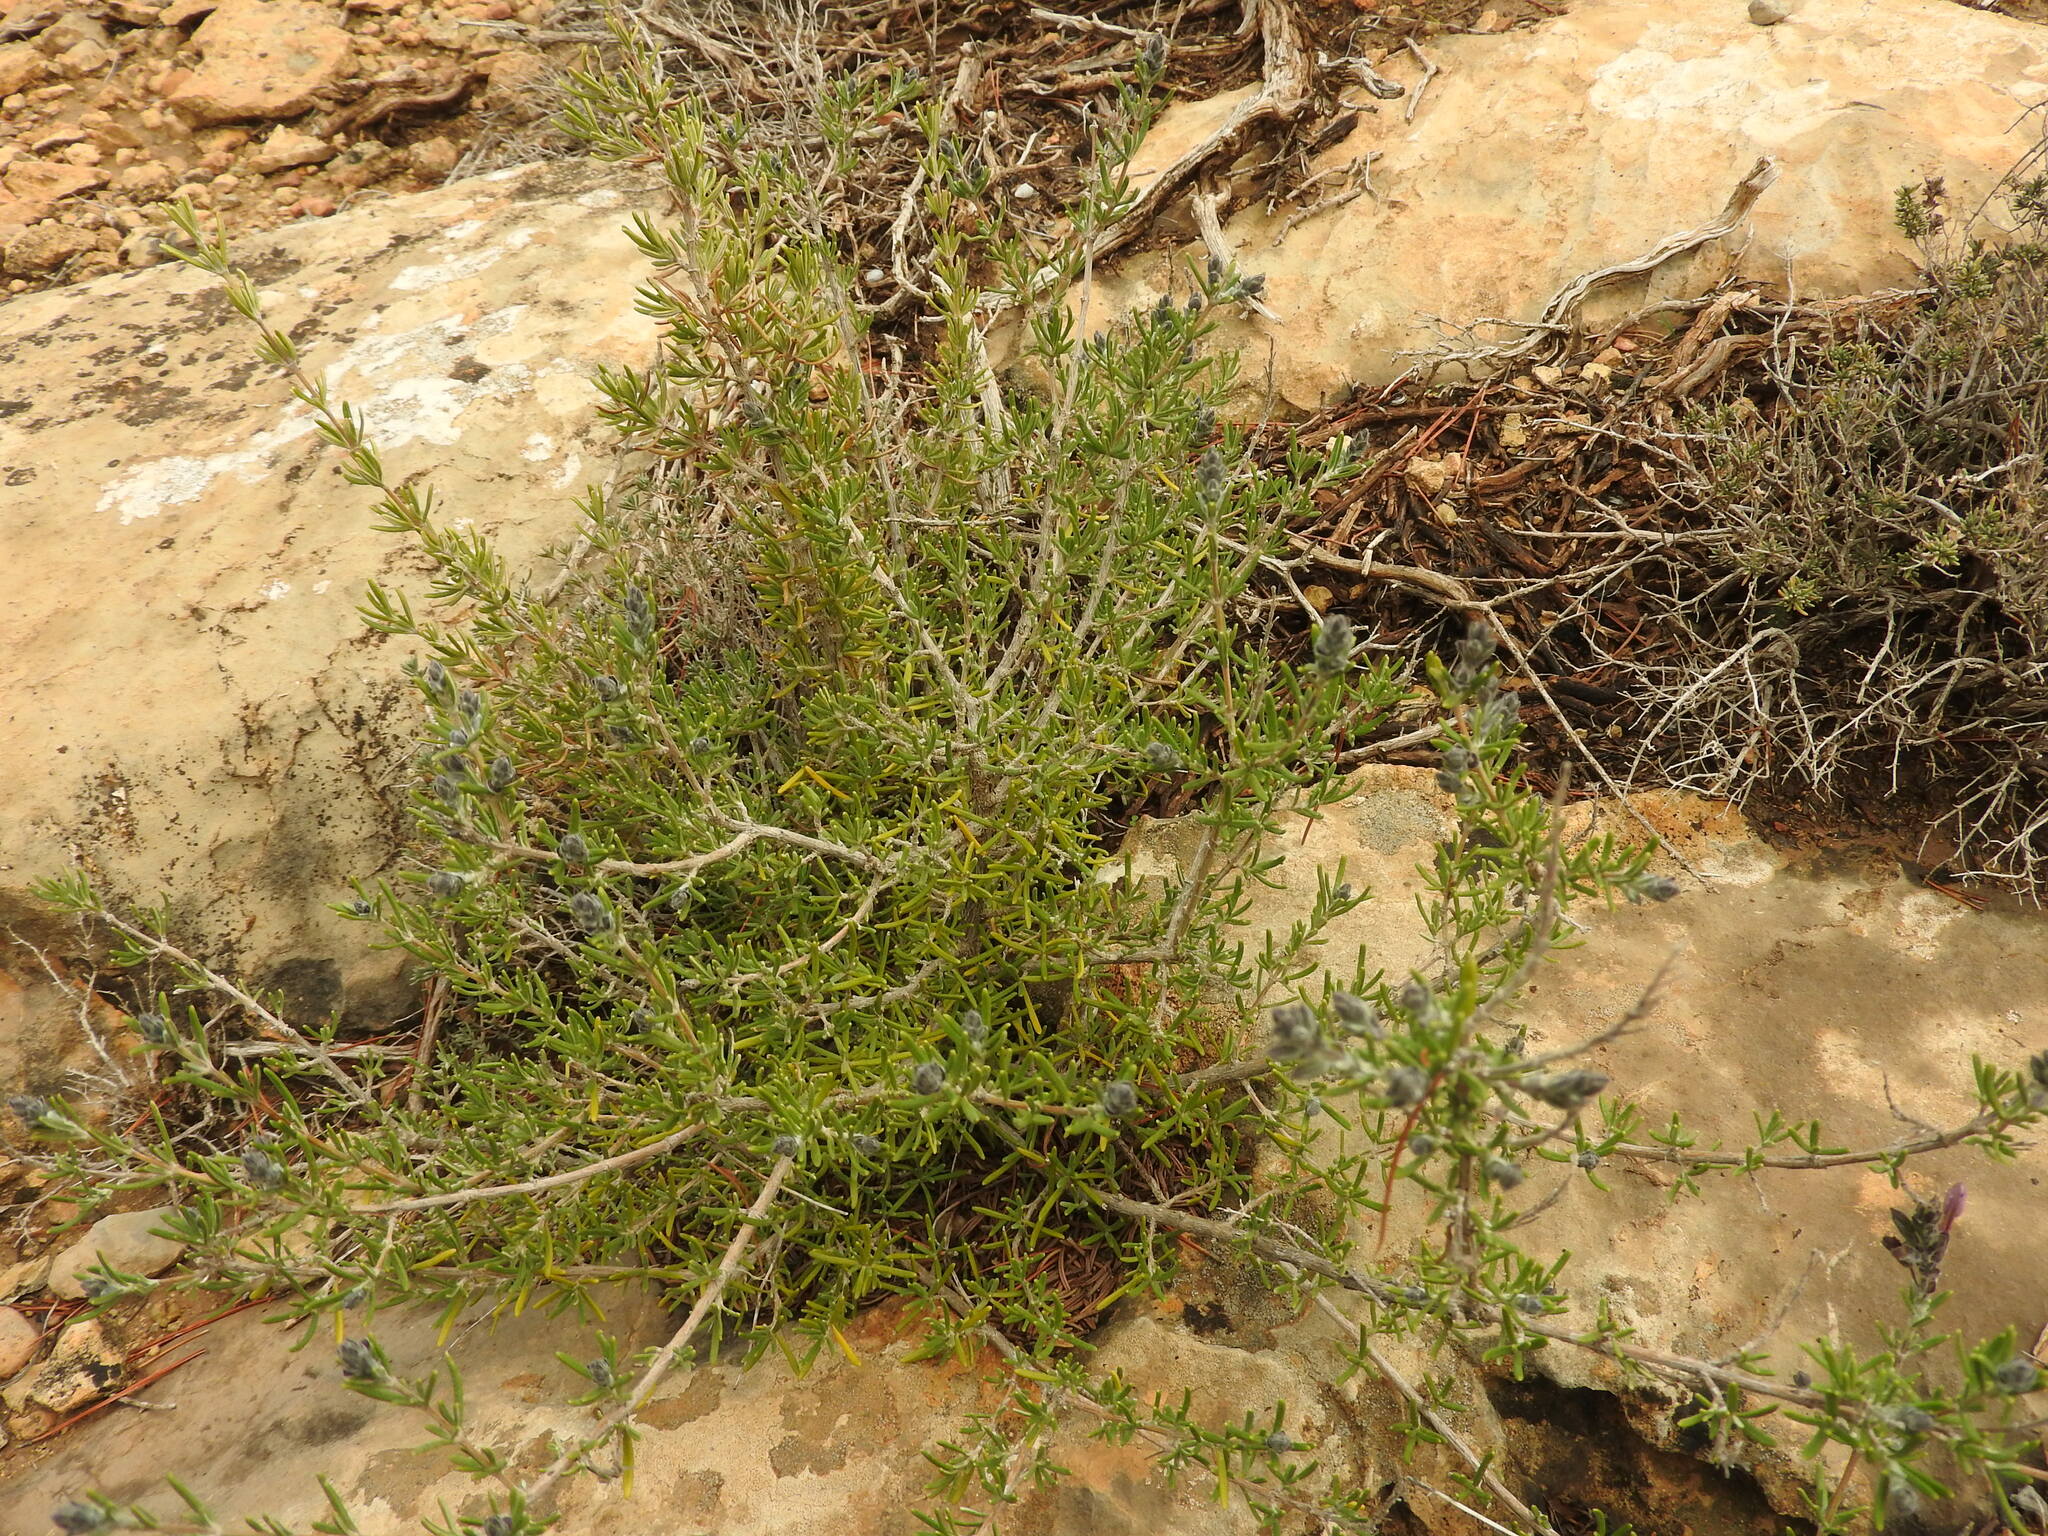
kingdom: Plantae
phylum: Tracheophyta
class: Magnoliopsida
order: Lamiales
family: Lamiaceae
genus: Salvia
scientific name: Salvia jordanii
